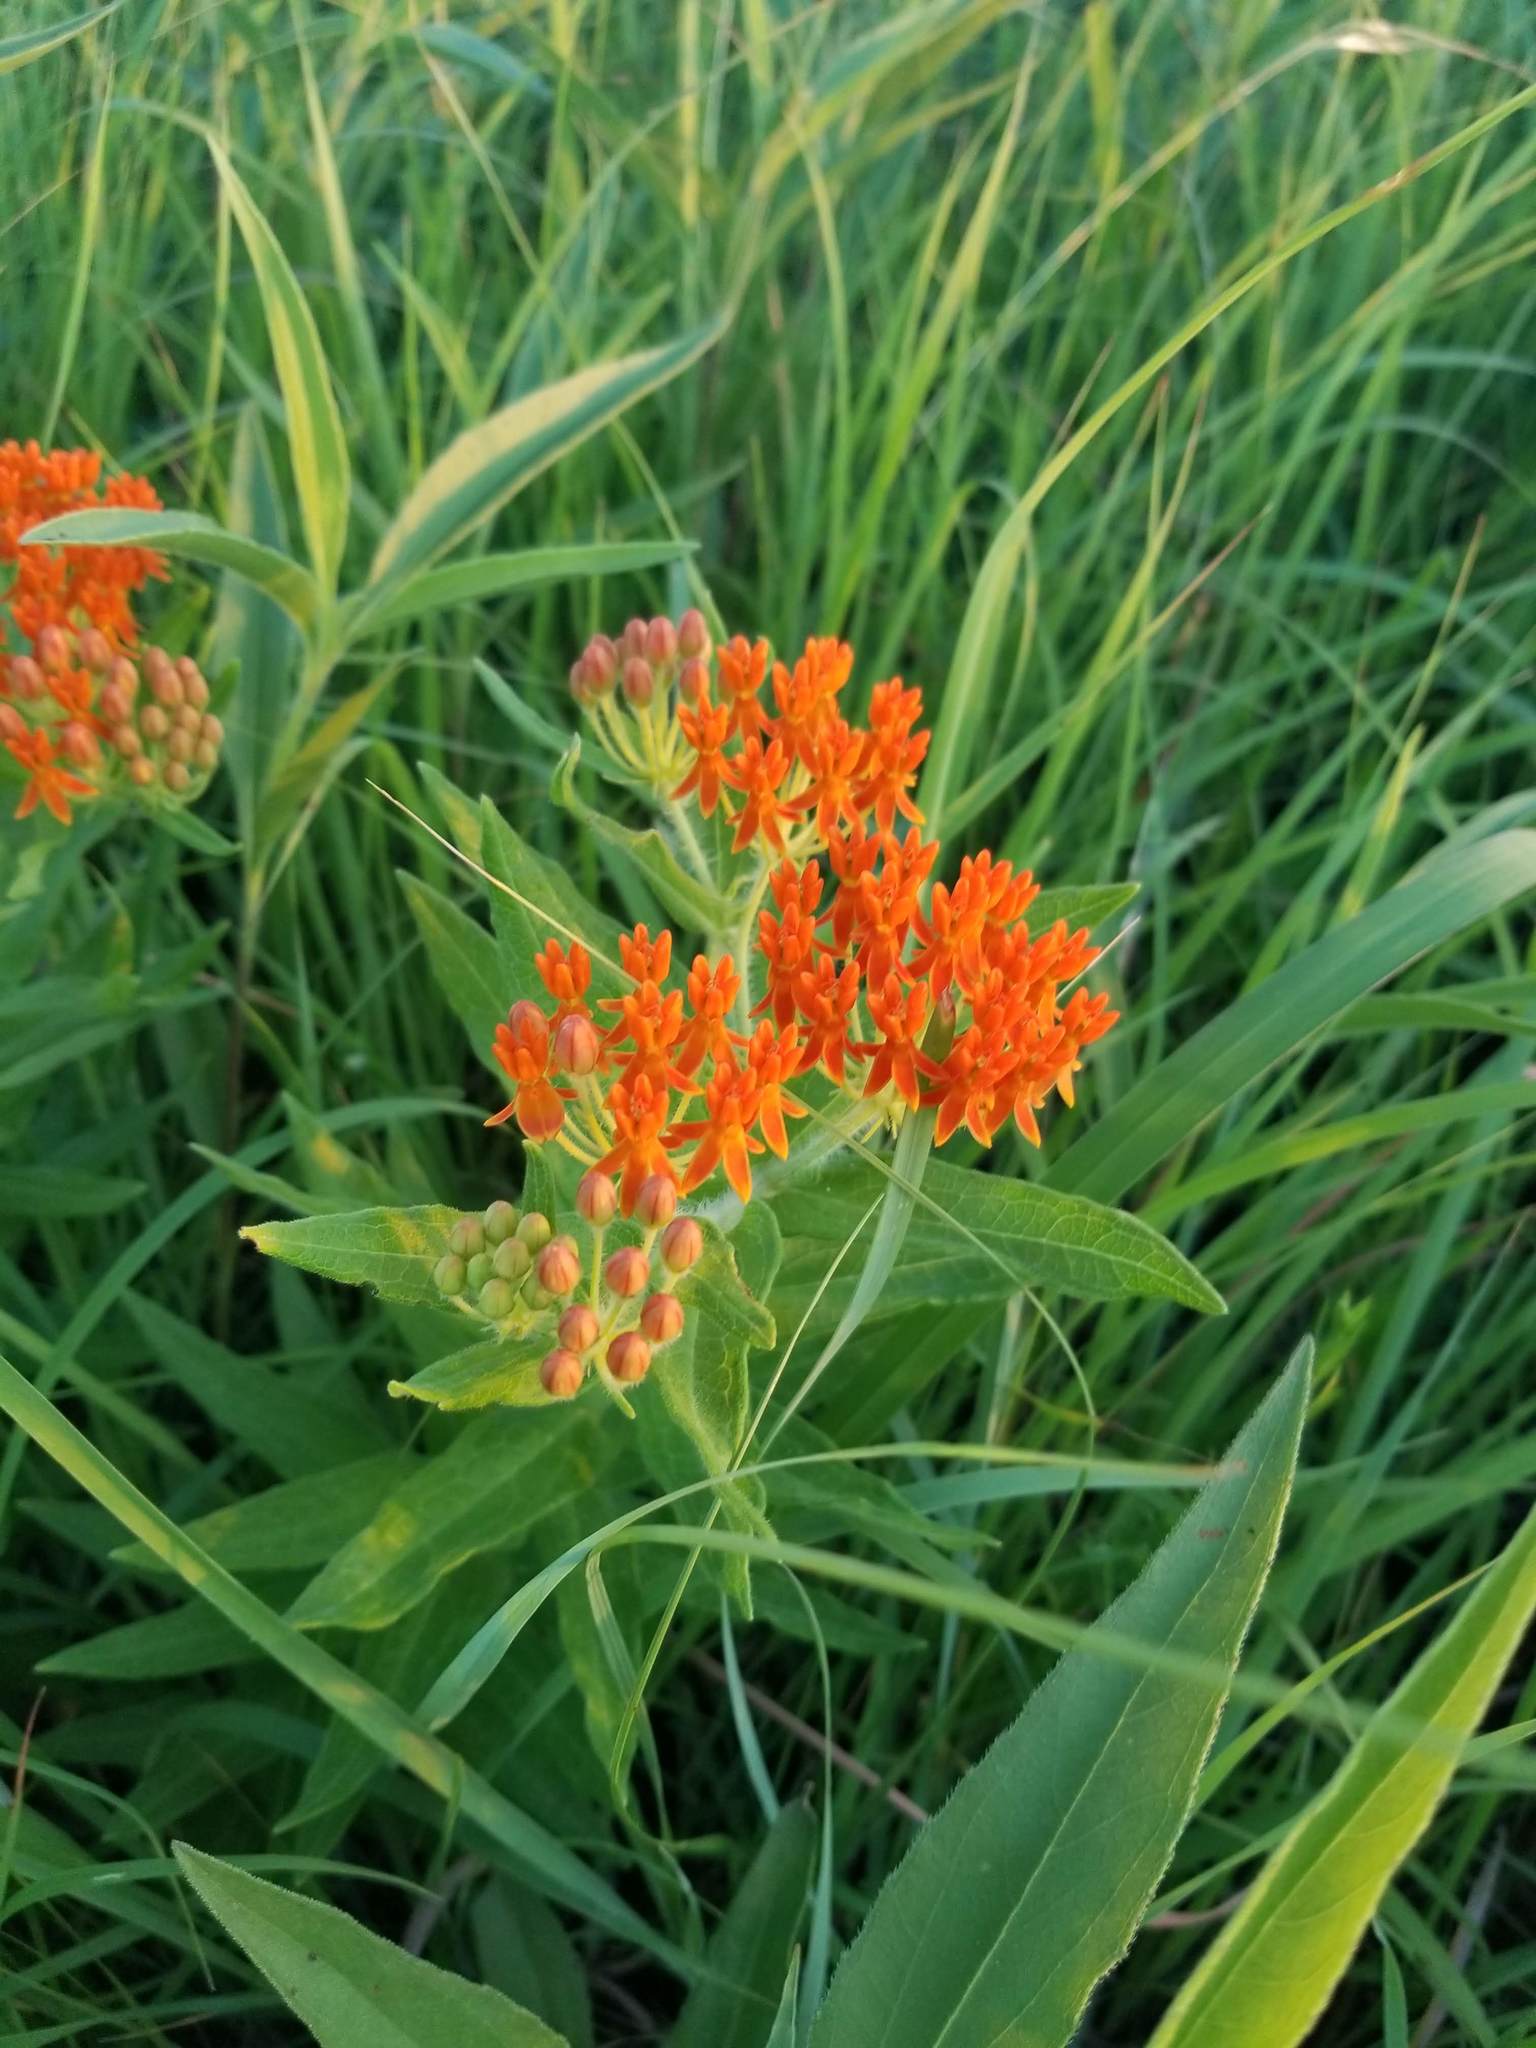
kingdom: Plantae
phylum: Tracheophyta
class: Magnoliopsida
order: Gentianales
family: Apocynaceae
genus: Asclepias
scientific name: Asclepias tuberosa
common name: Butterfly milkweed
